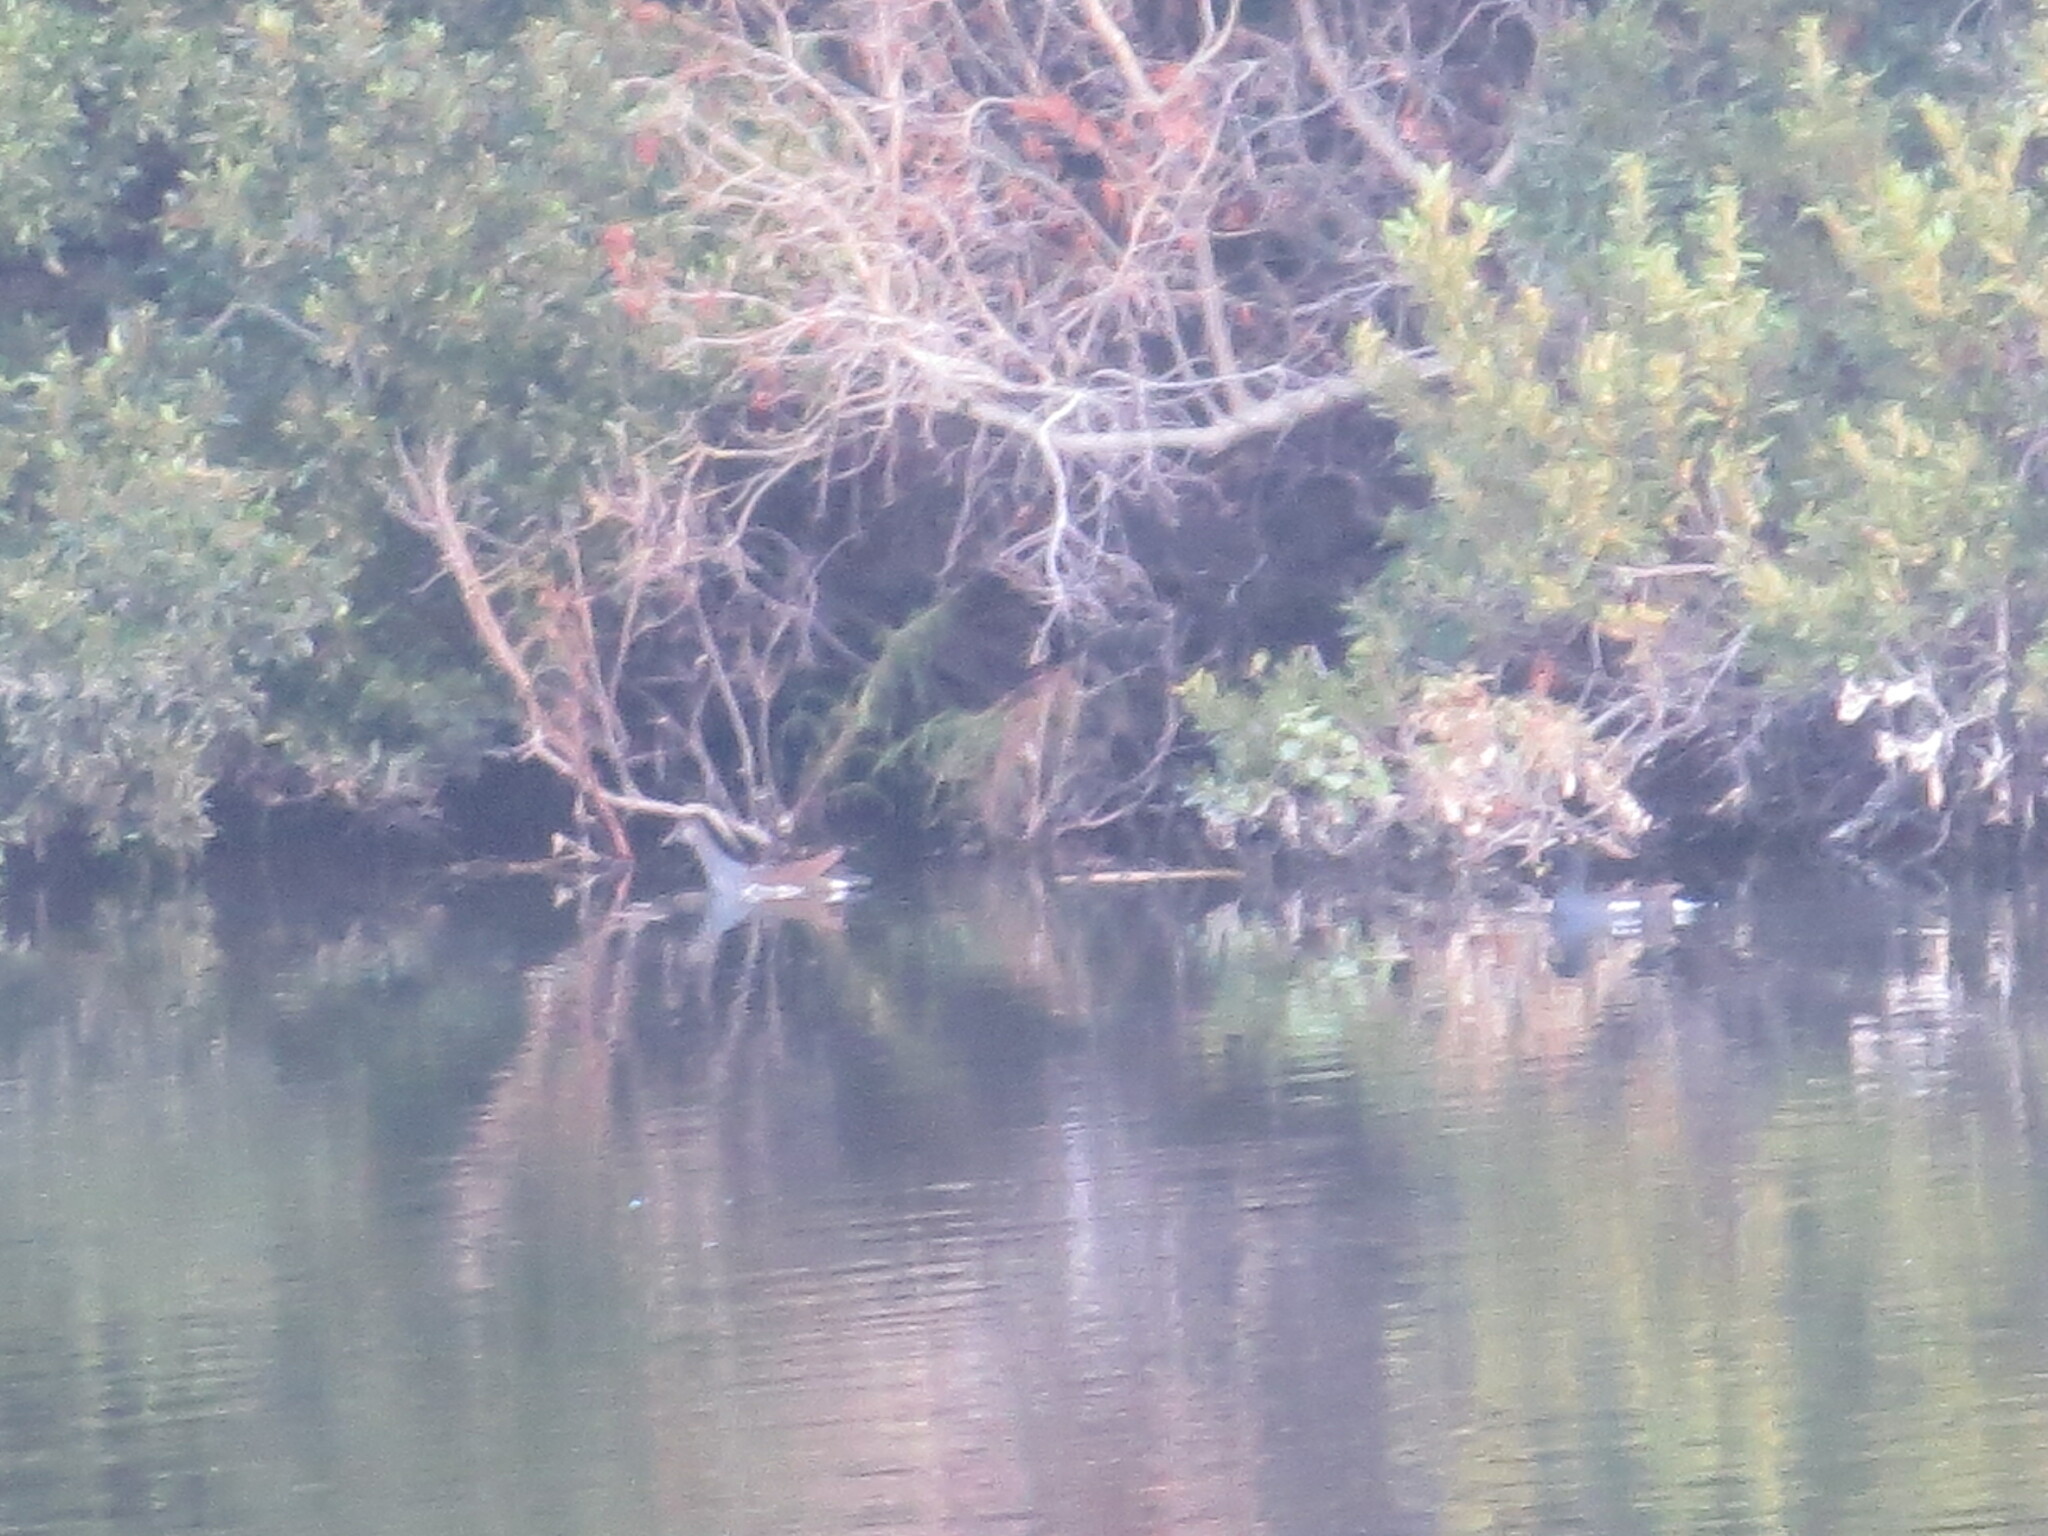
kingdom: Animalia
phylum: Chordata
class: Aves
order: Gruiformes
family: Rallidae
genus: Gallinula
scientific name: Gallinula chloropus
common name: Common moorhen
